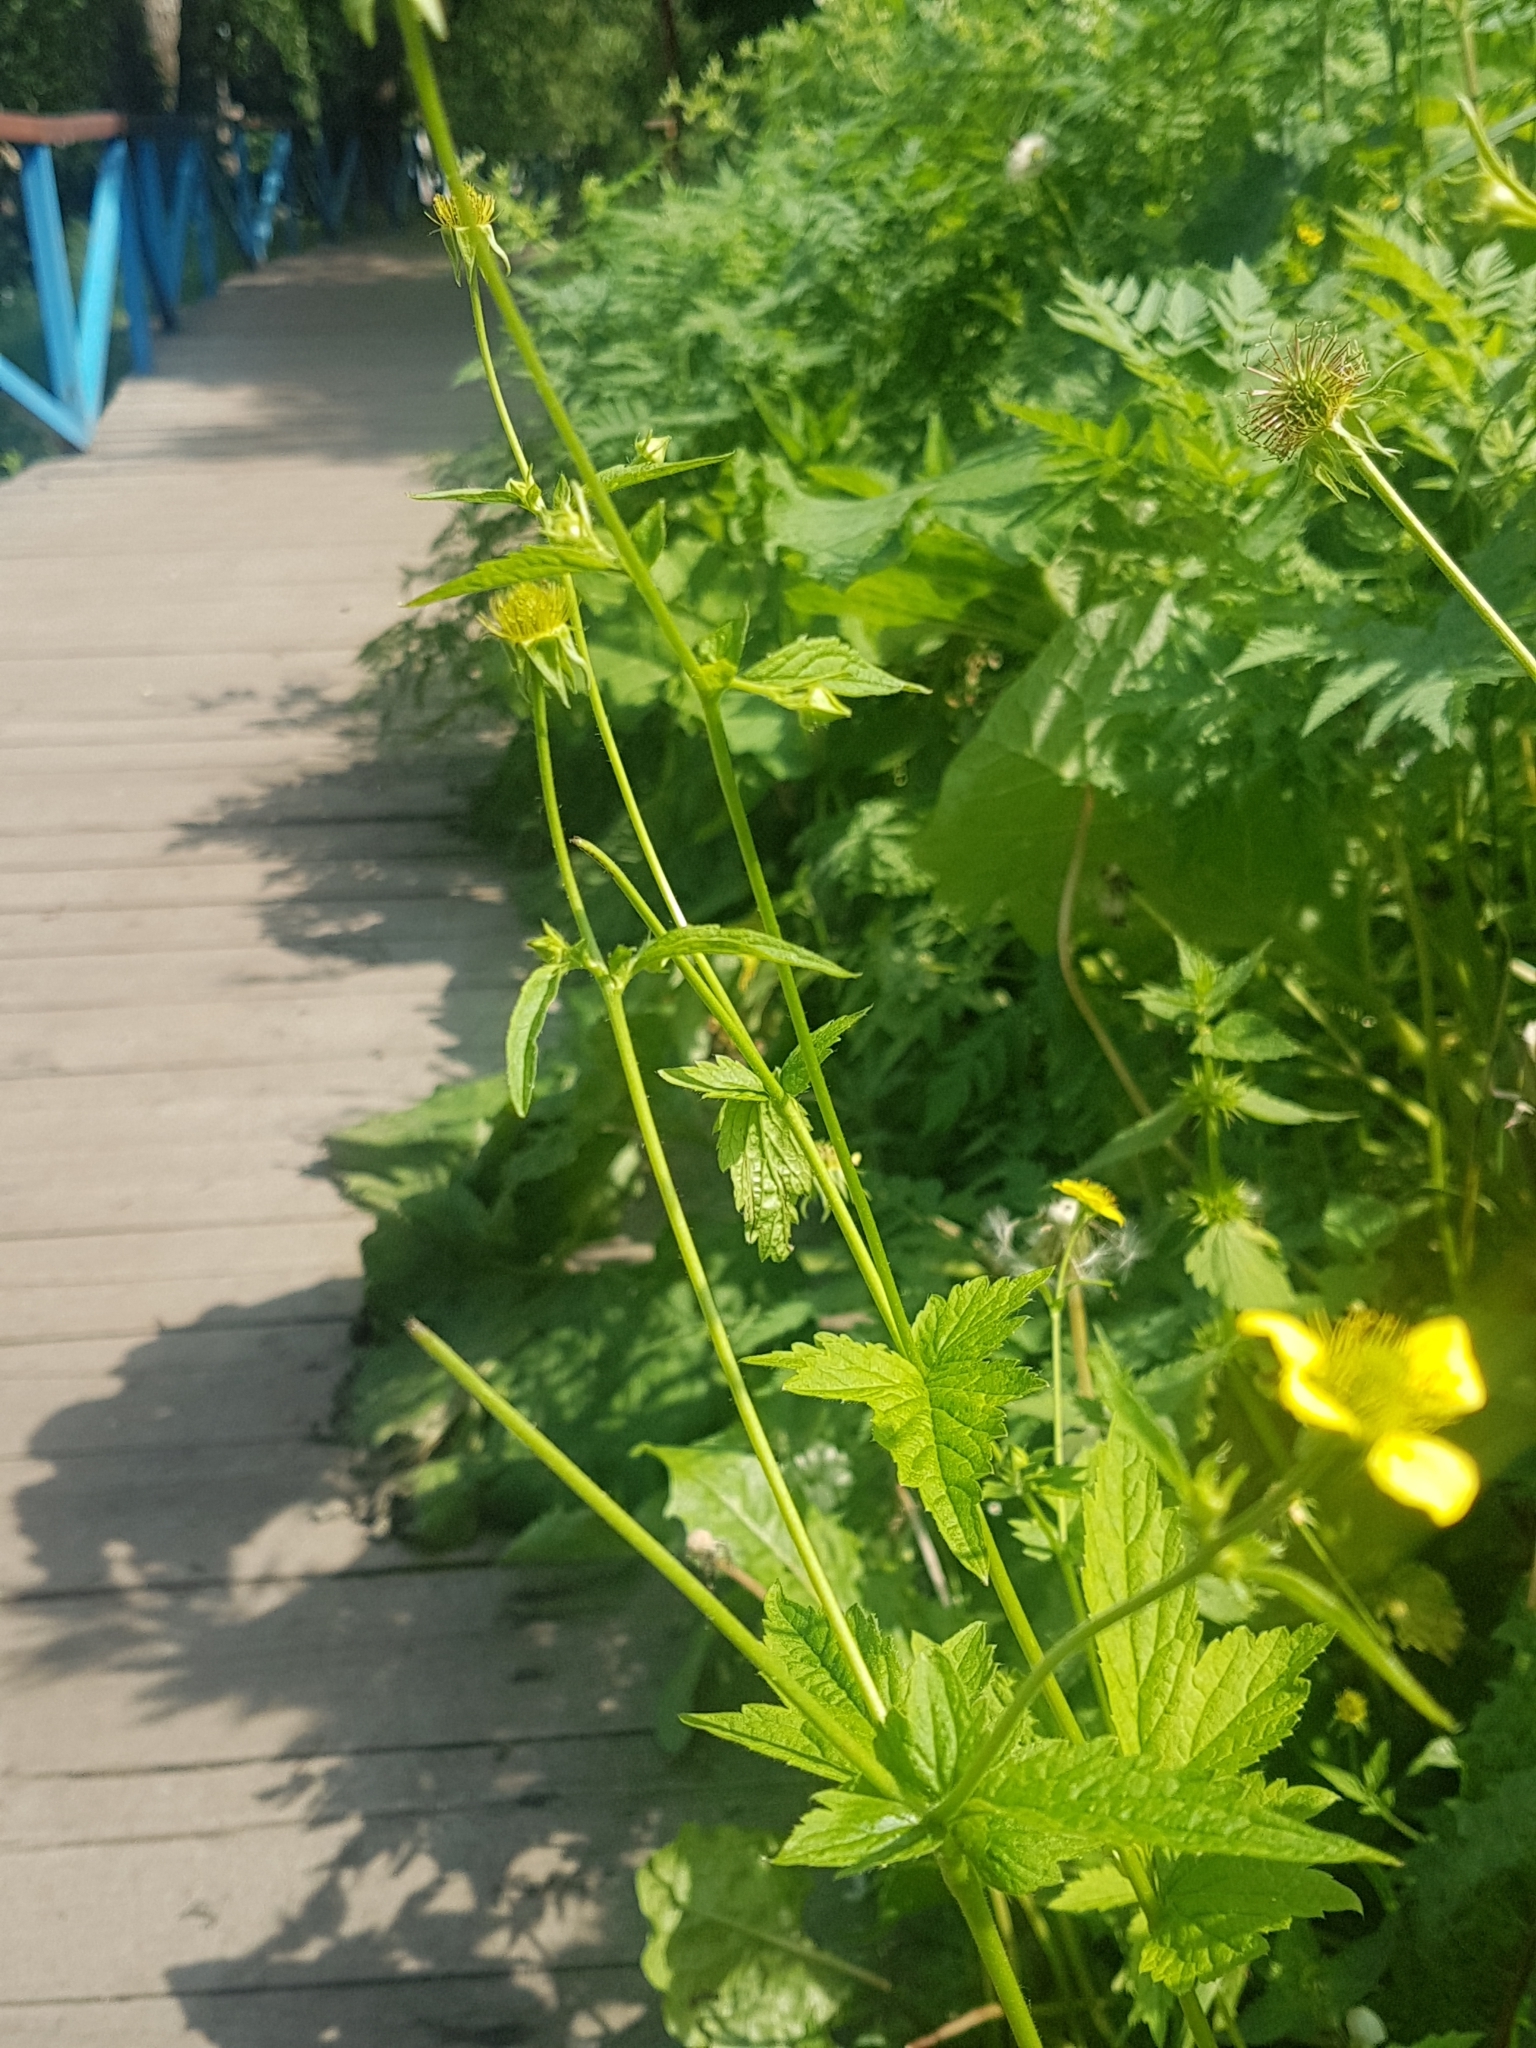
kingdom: Plantae
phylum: Tracheophyta
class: Magnoliopsida
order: Rosales
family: Rosaceae
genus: Geum
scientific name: Geum urbanum
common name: Wood avens
